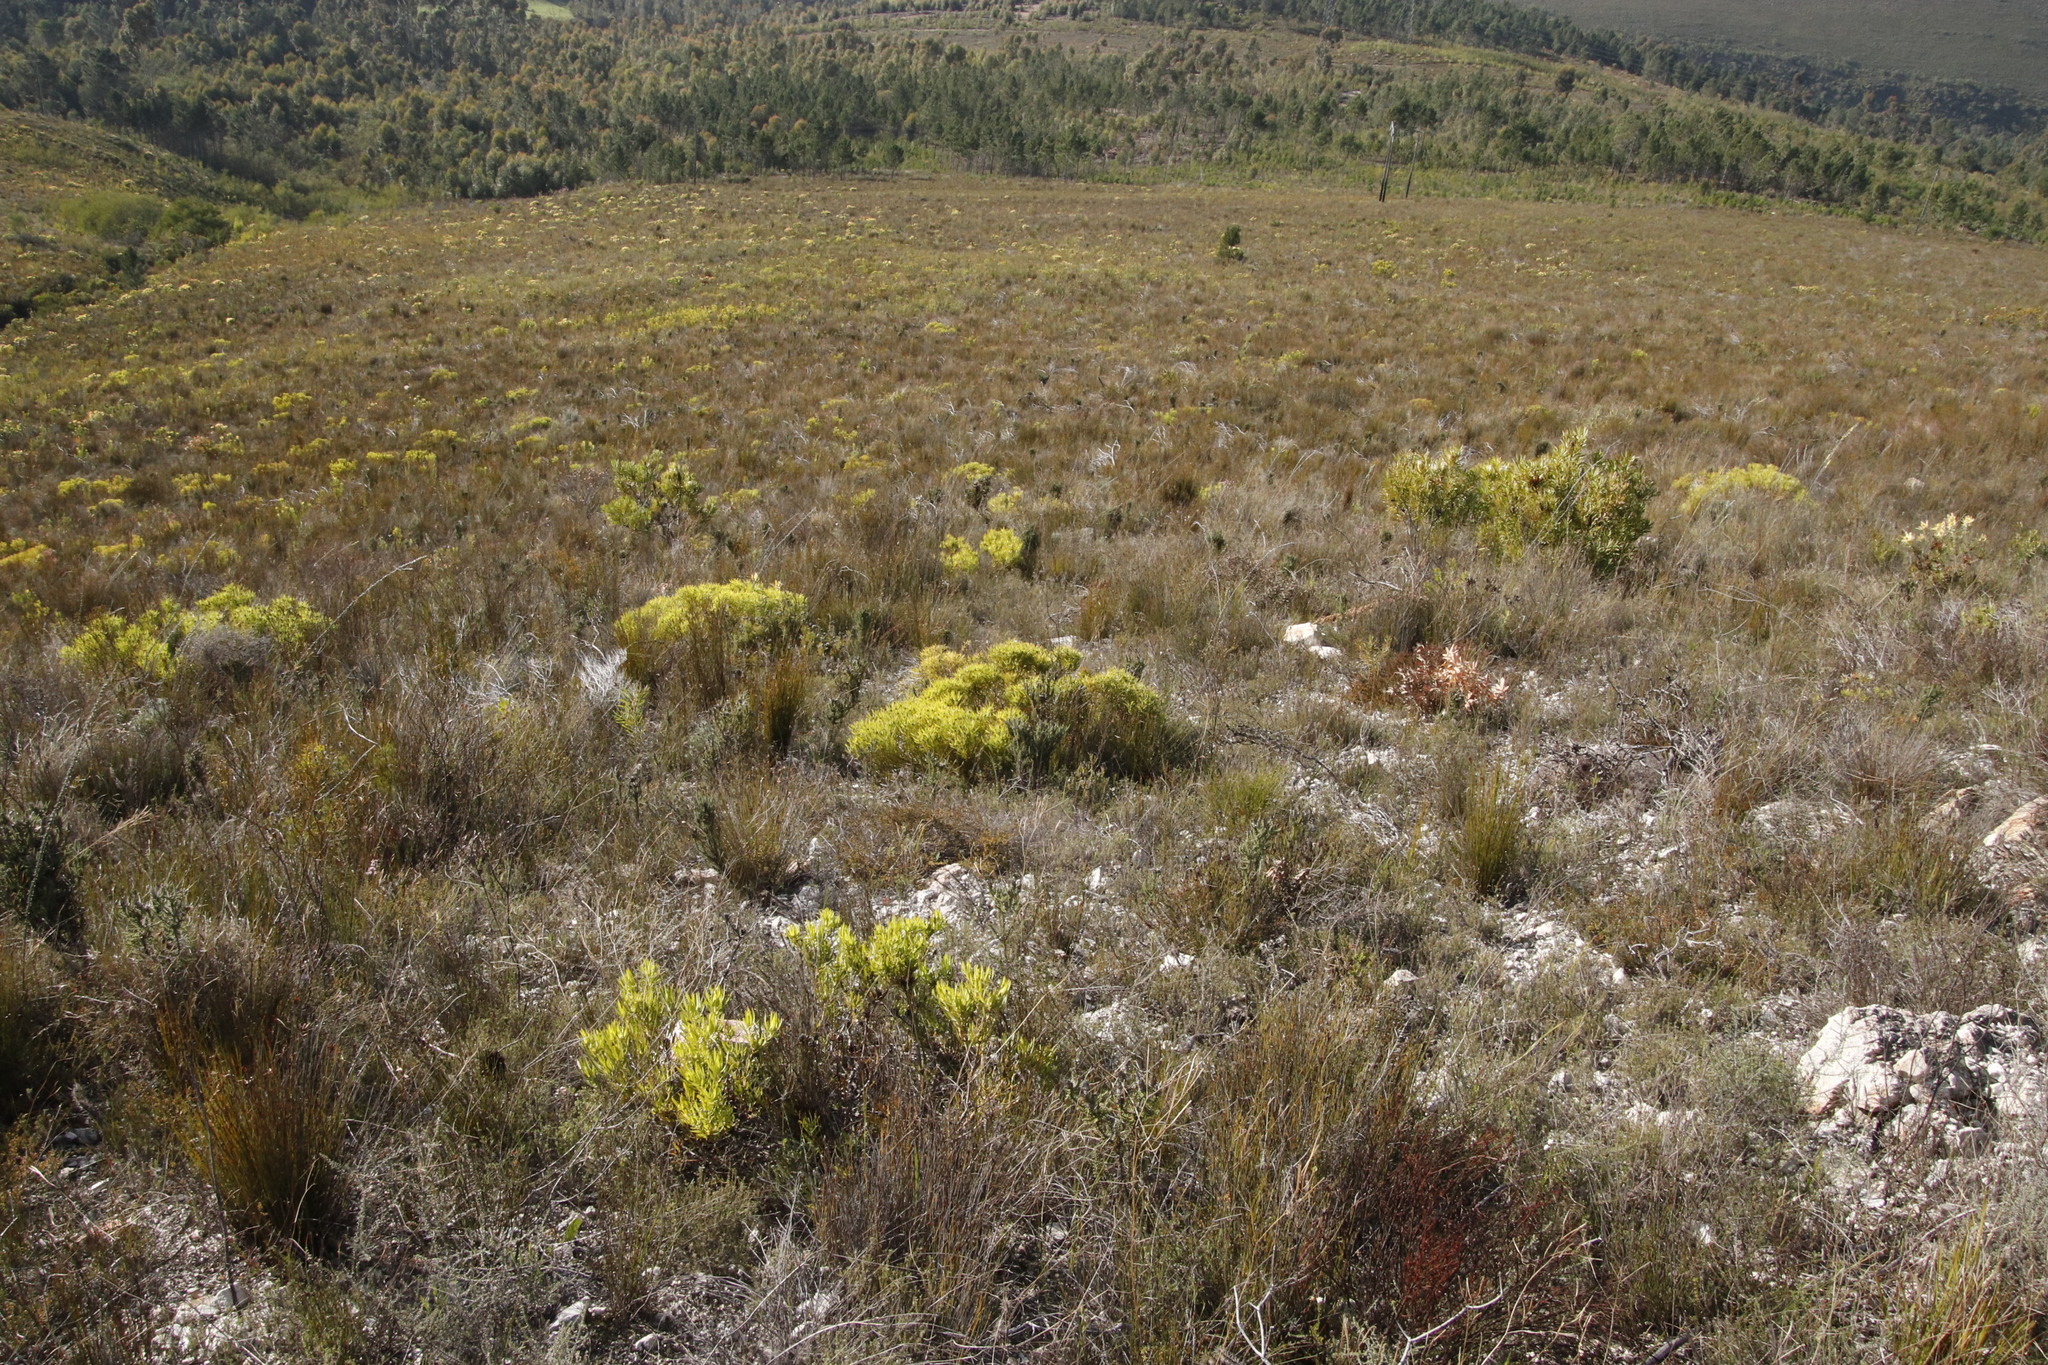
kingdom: Plantae
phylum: Tracheophyta
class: Magnoliopsida
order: Proteales
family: Proteaceae
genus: Leucadendron
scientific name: Leucadendron salignum
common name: Common sunshine conebush
